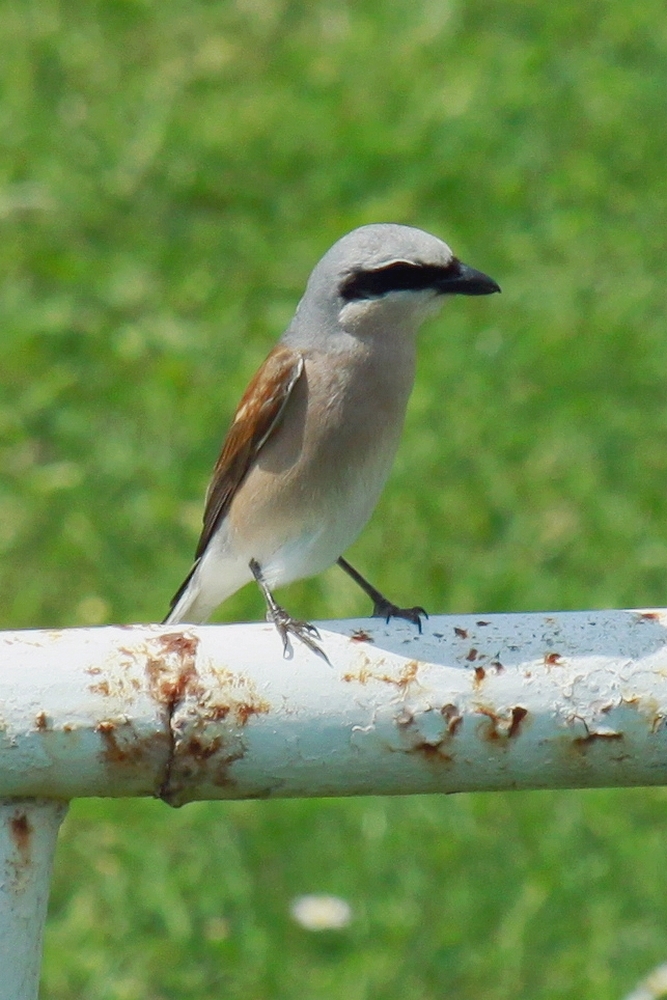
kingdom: Animalia
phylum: Chordata
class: Aves
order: Passeriformes
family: Laniidae
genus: Lanius
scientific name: Lanius collurio
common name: Red-backed shrike
